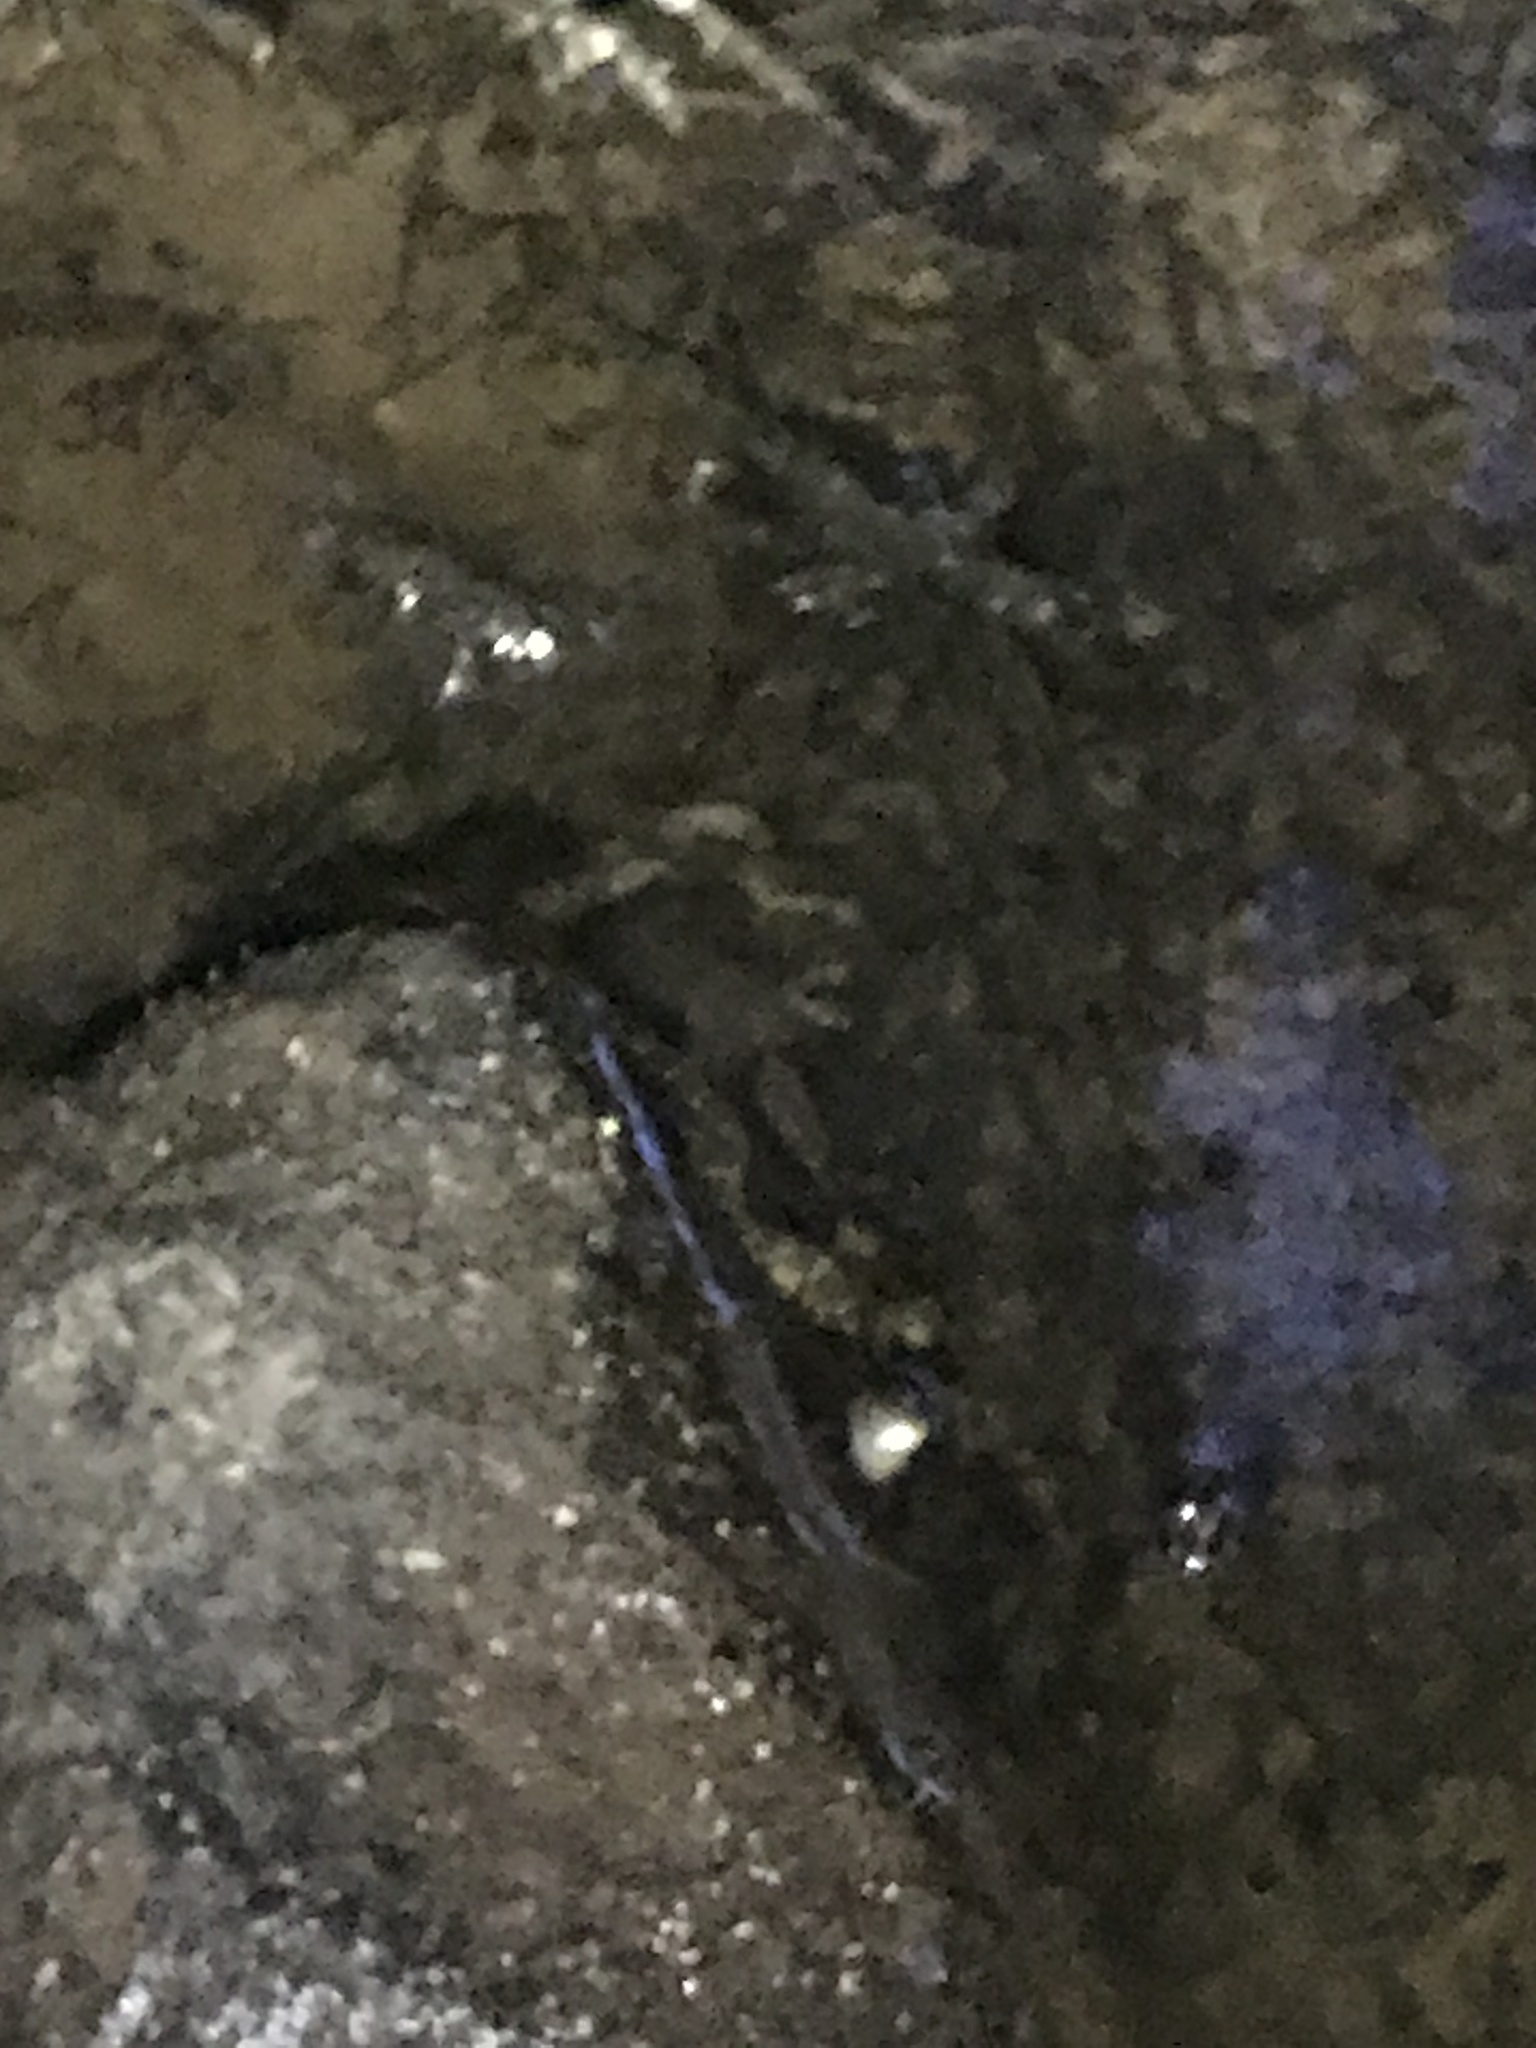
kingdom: Animalia
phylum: Chordata
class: Squamata
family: Colubridae
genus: Nerodia
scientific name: Nerodia sipedon
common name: Northern water snake
